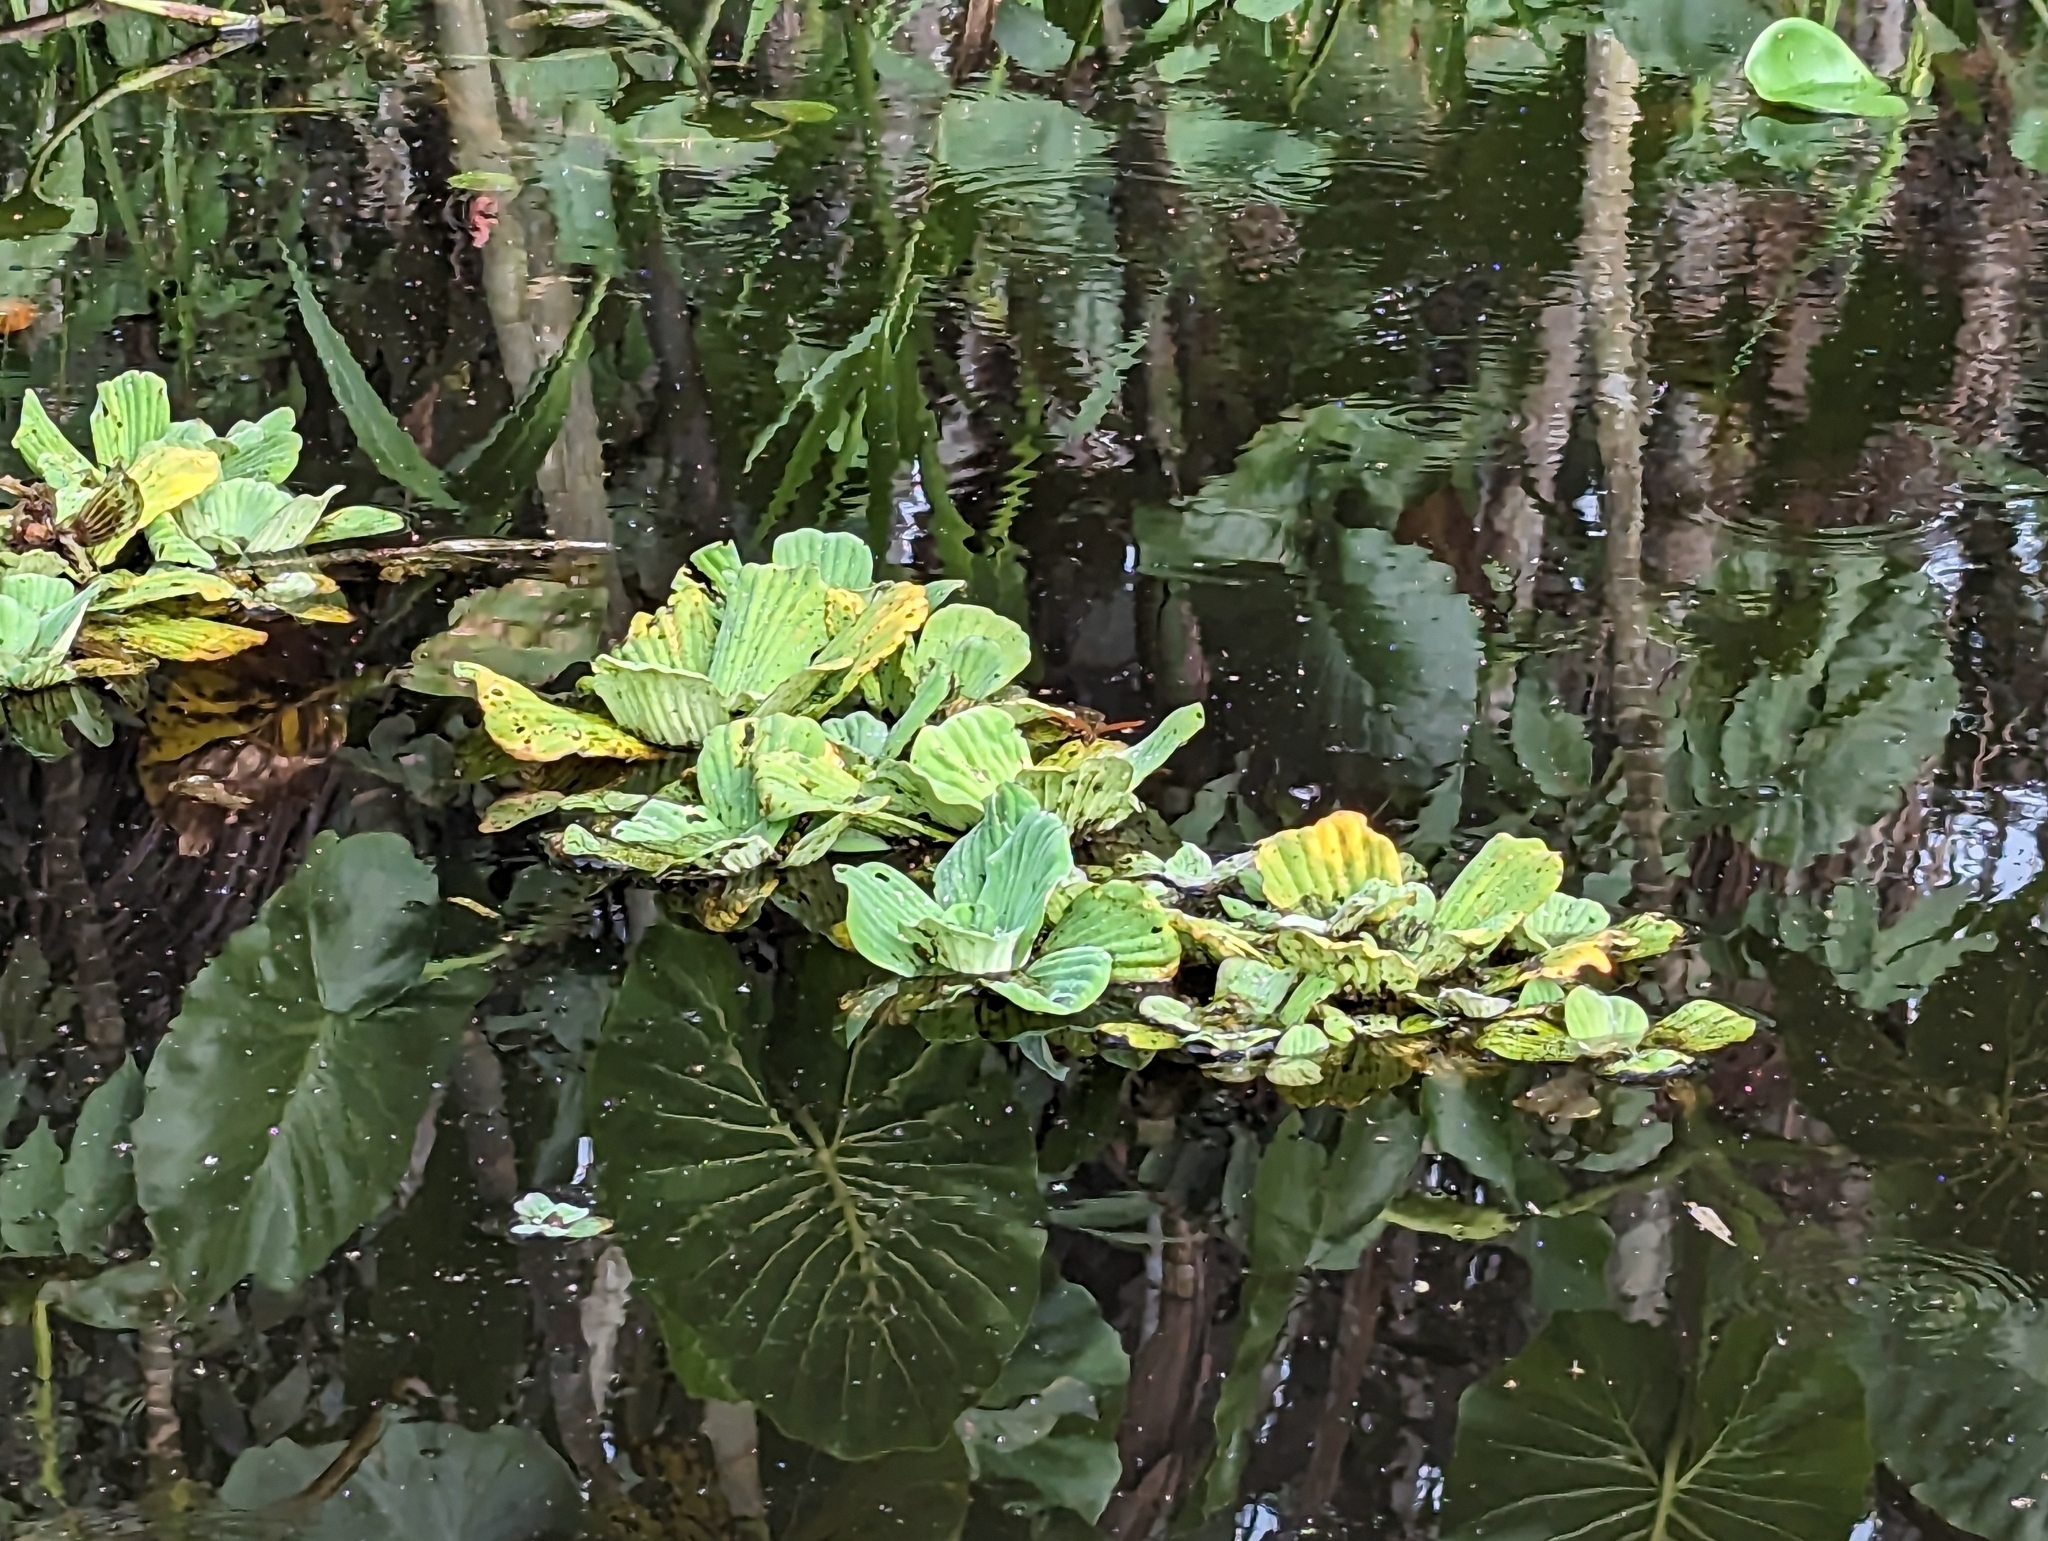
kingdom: Plantae
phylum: Tracheophyta
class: Liliopsida
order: Alismatales
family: Araceae
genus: Pistia
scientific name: Pistia stratiotes
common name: Water lettuce
